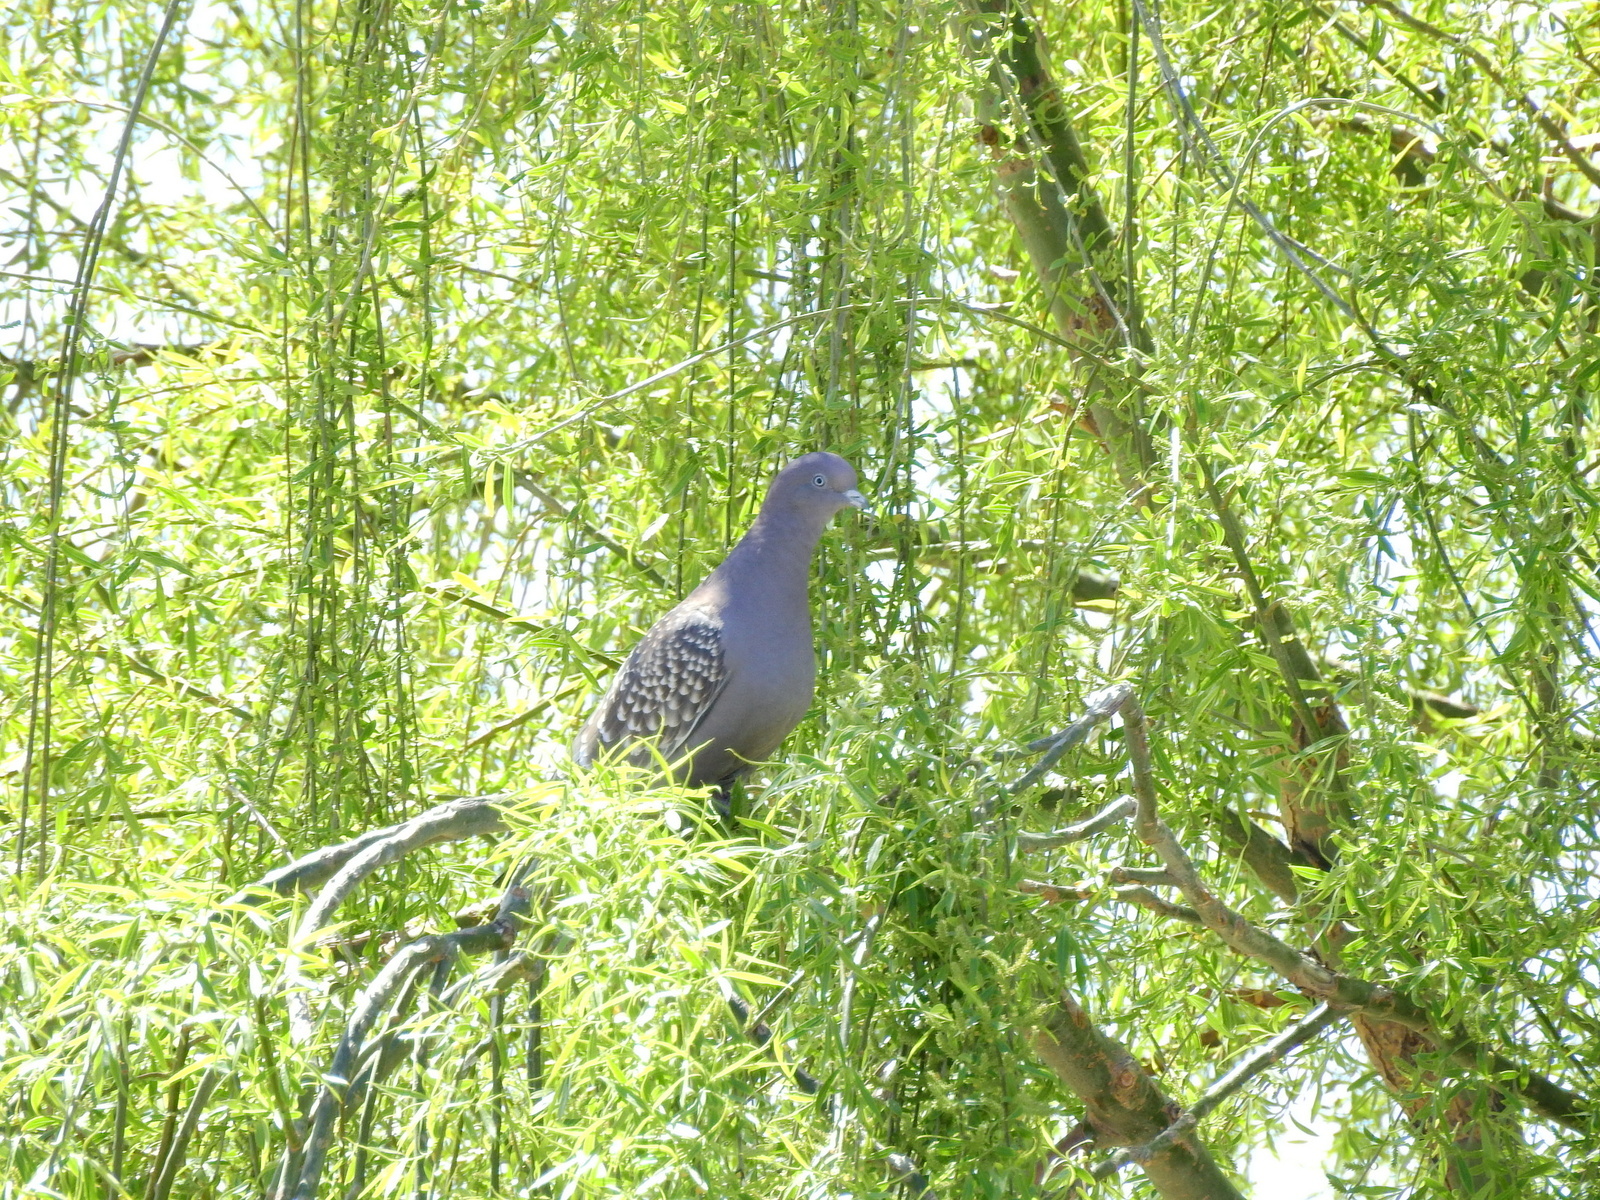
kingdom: Animalia
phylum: Chordata
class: Aves
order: Columbiformes
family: Columbidae
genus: Patagioenas
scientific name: Patagioenas maculosa
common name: Spot-winged pigeon
